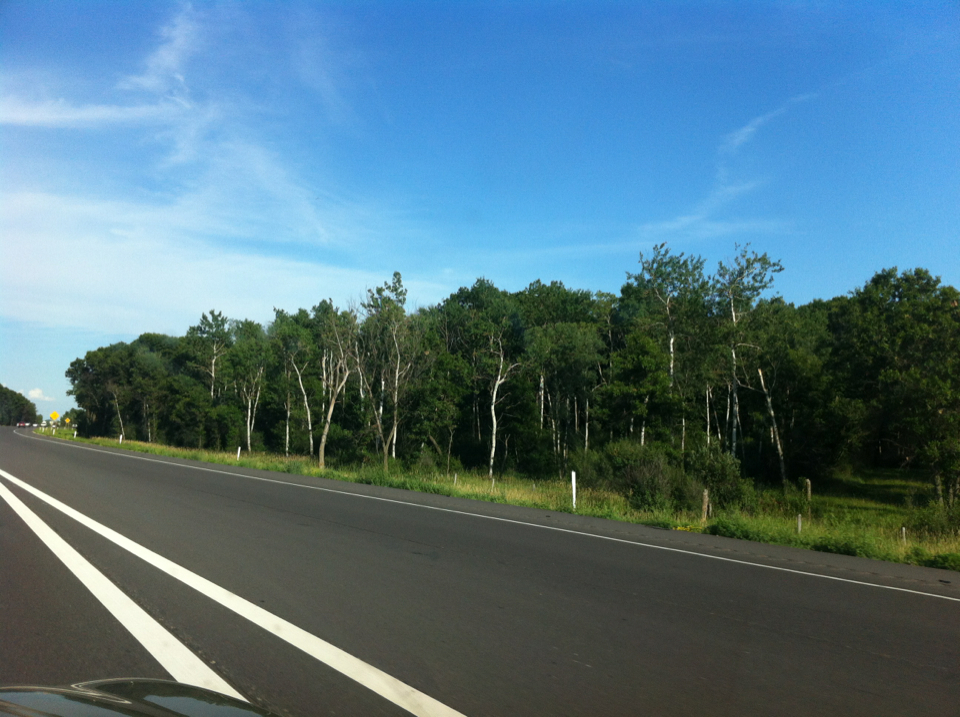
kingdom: Plantae
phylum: Tracheophyta
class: Magnoliopsida
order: Malpighiales
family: Salicaceae
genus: Populus
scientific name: Populus tremuloides
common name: Quaking aspen
